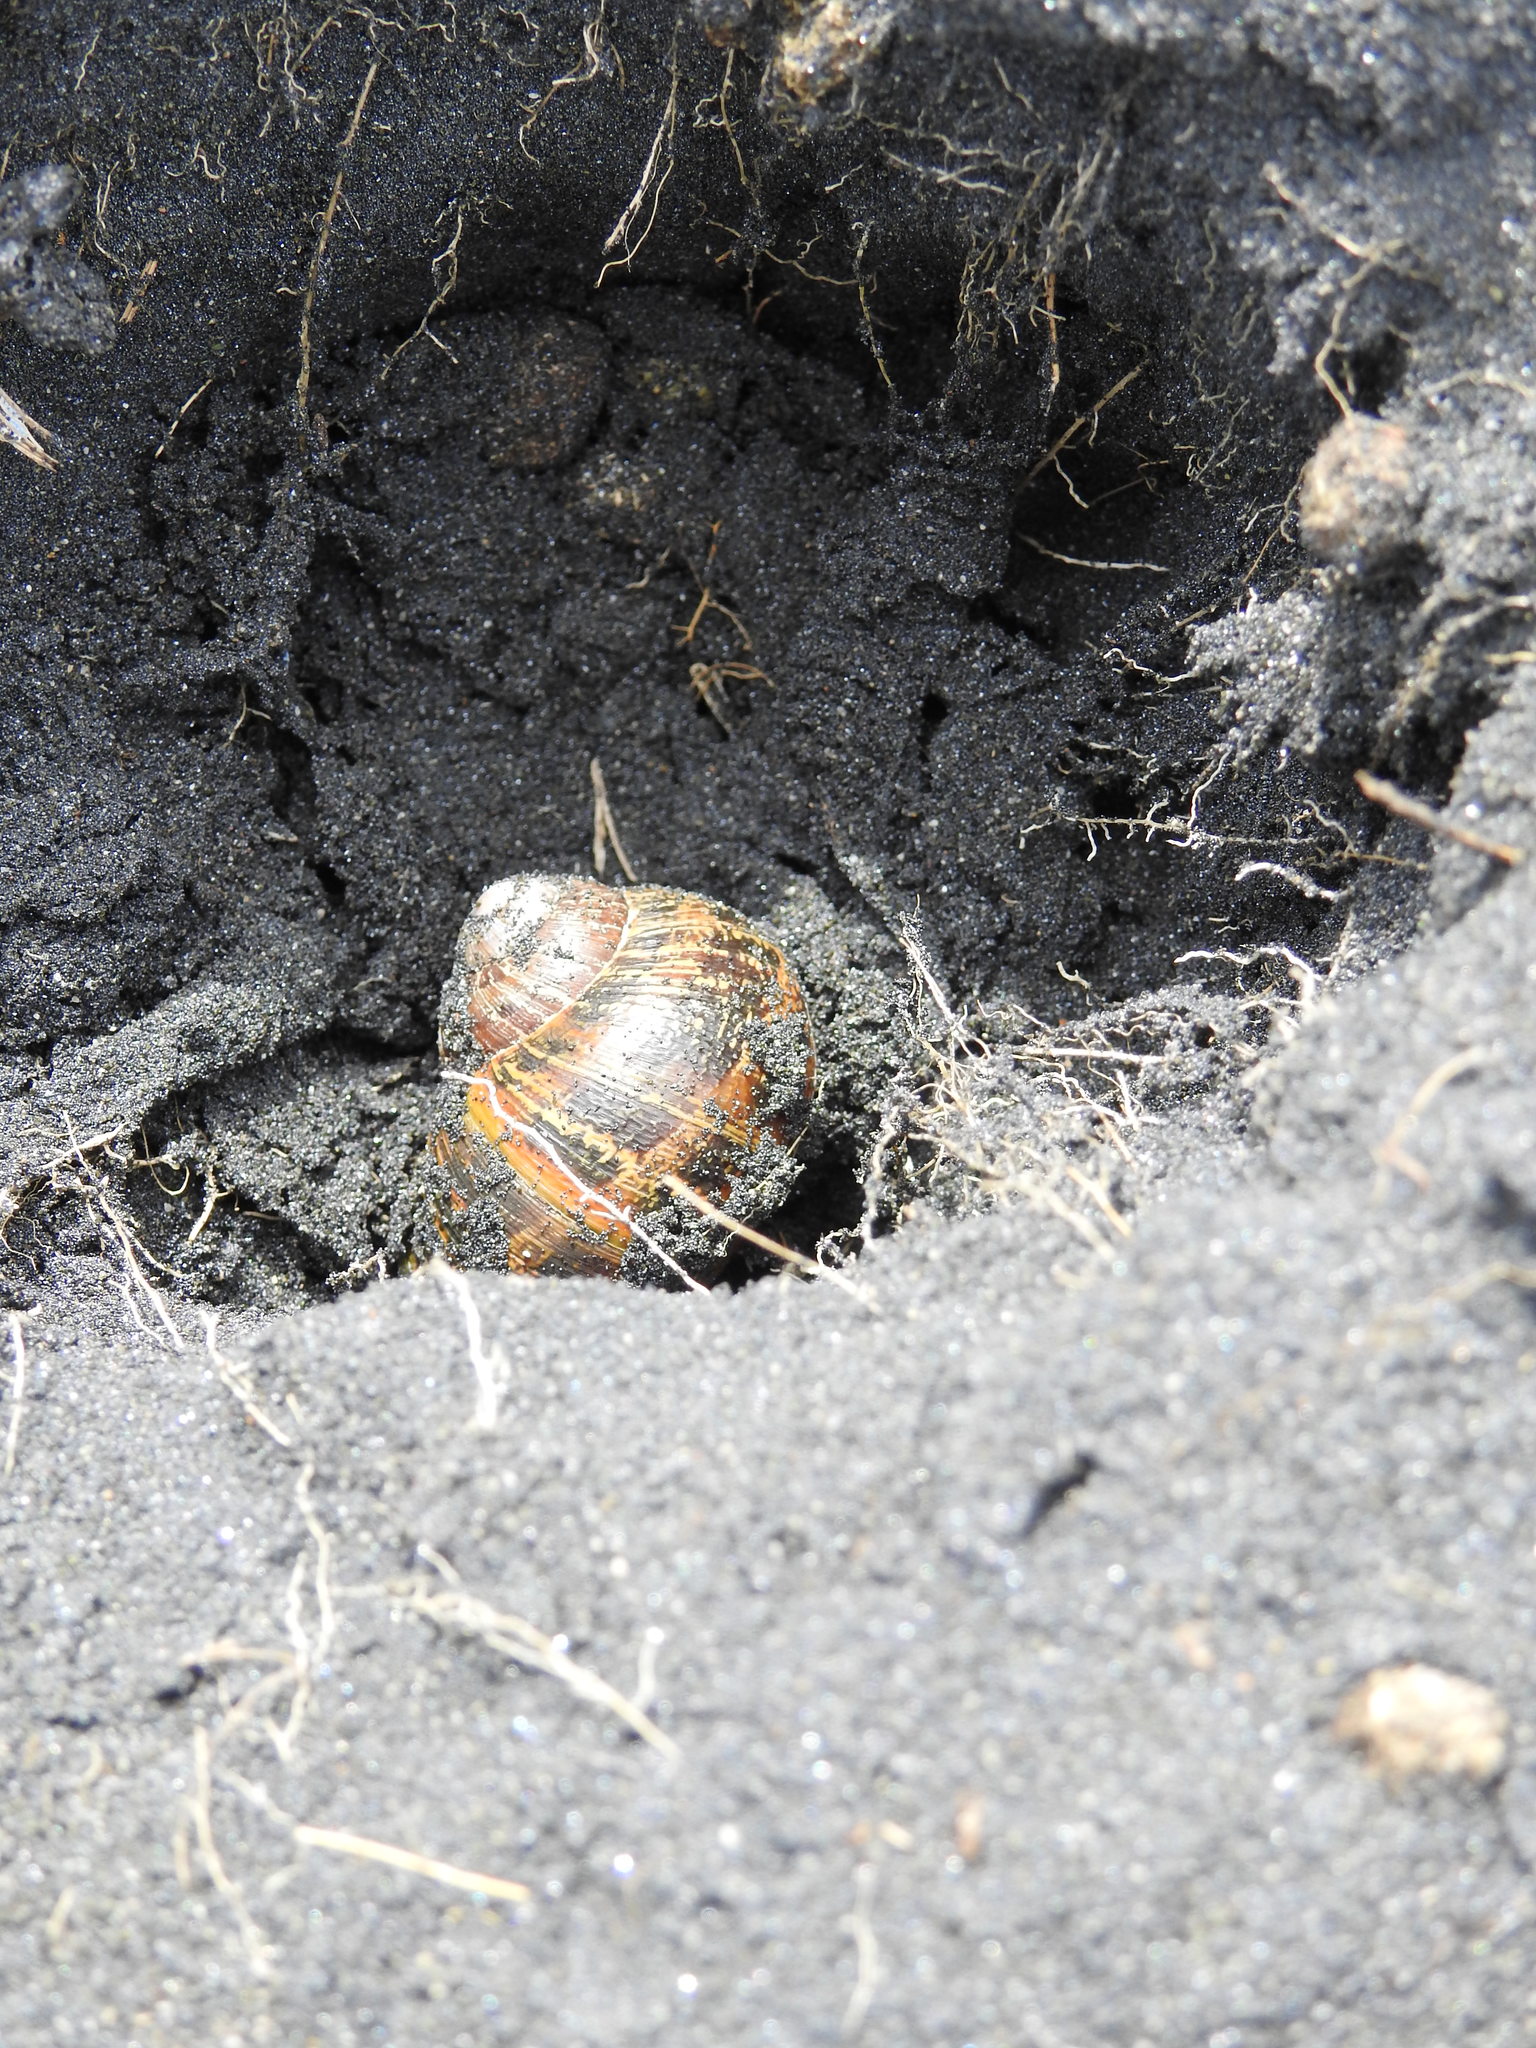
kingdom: Animalia
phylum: Mollusca
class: Gastropoda
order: Stylommatophora
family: Helicidae
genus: Cornu
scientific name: Cornu aspersum
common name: Brown garden snail
